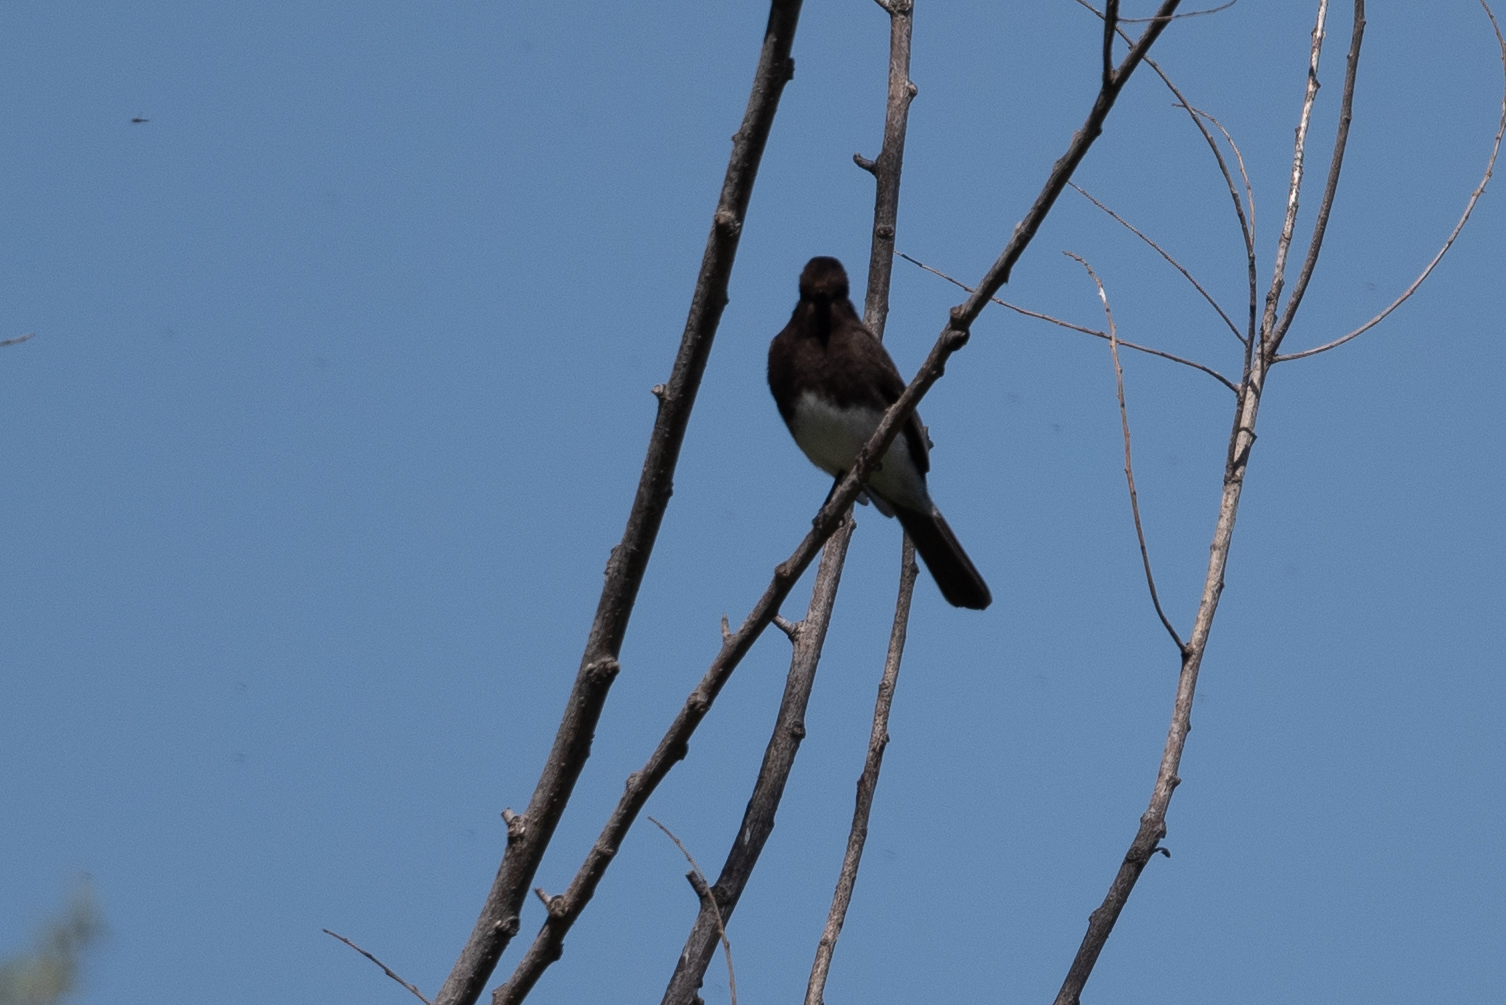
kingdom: Animalia
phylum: Chordata
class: Aves
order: Passeriformes
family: Tyrannidae
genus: Sayornis
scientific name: Sayornis nigricans
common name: Black phoebe
